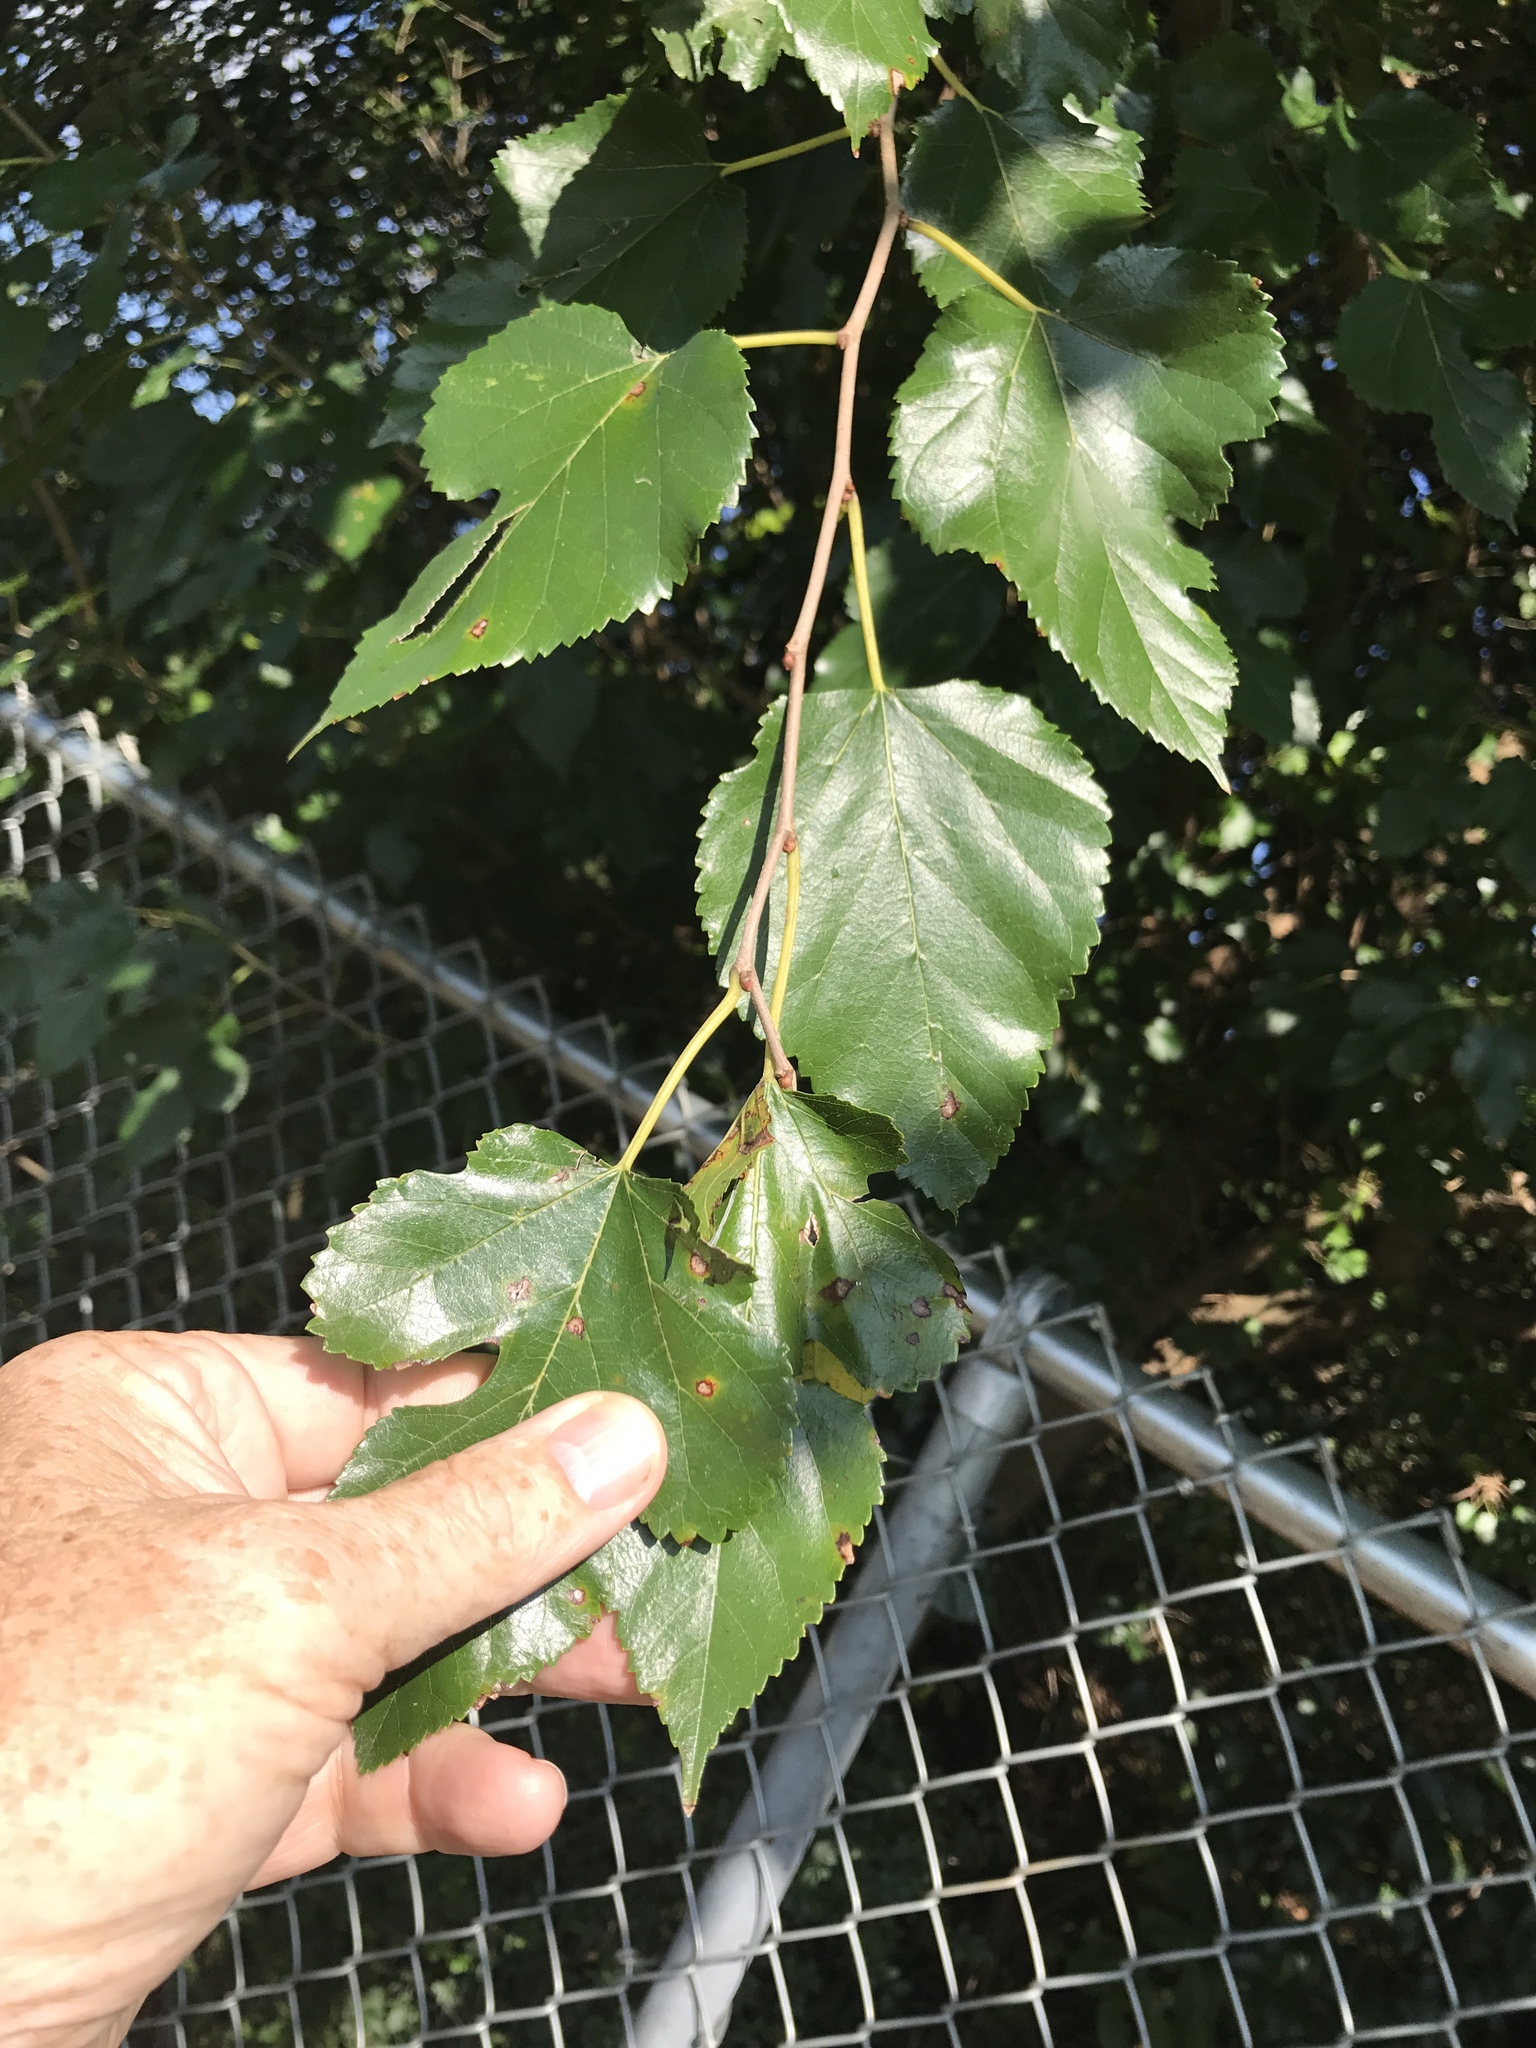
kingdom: Plantae
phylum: Tracheophyta
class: Magnoliopsida
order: Rosales
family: Moraceae
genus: Morus
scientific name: Morus alba
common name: White mulberry
